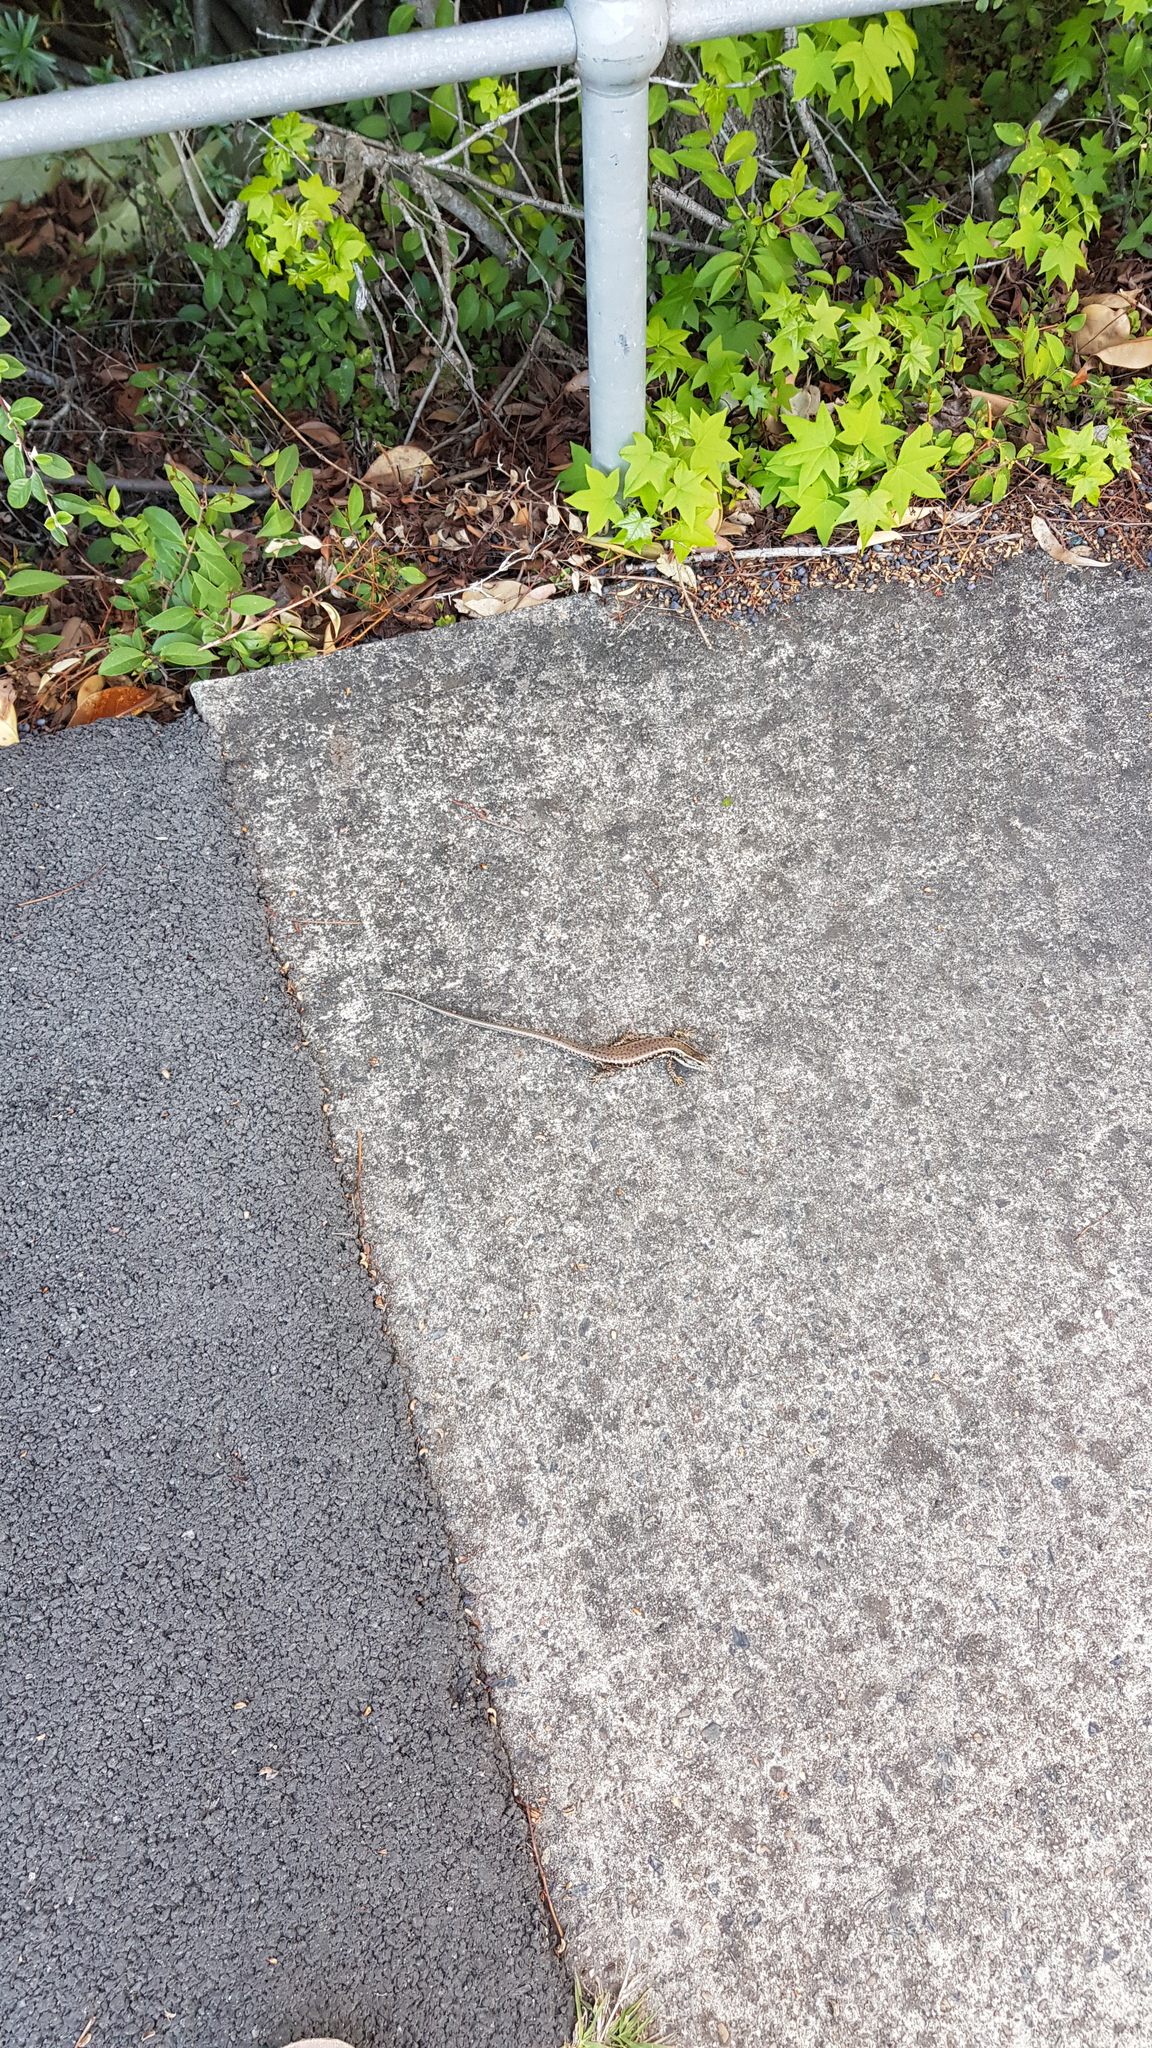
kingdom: Animalia
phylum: Chordata
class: Squamata
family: Scincidae
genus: Eulamprus
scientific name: Eulamprus quoyii
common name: Eastern water skink
